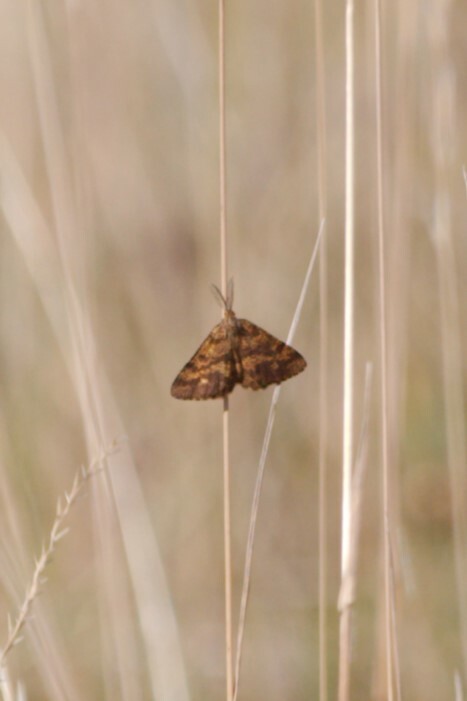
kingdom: Animalia
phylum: Arthropoda
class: Insecta
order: Lepidoptera
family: Geometridae
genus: Ematurga
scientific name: Ematurga atomaria
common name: Common heath
